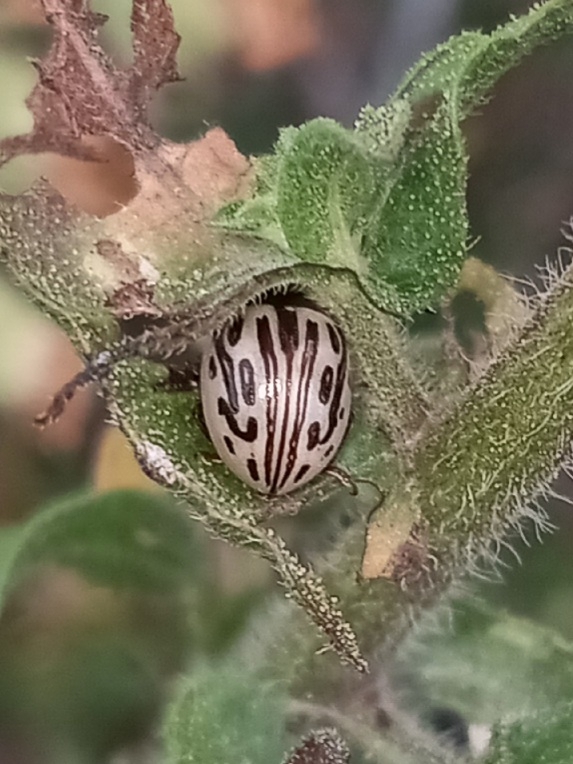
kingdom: Animalia
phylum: Arthropoda
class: Insecta
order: Coleoptera
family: Chrysomelidae
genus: Calligrapha
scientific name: Calligrapha
